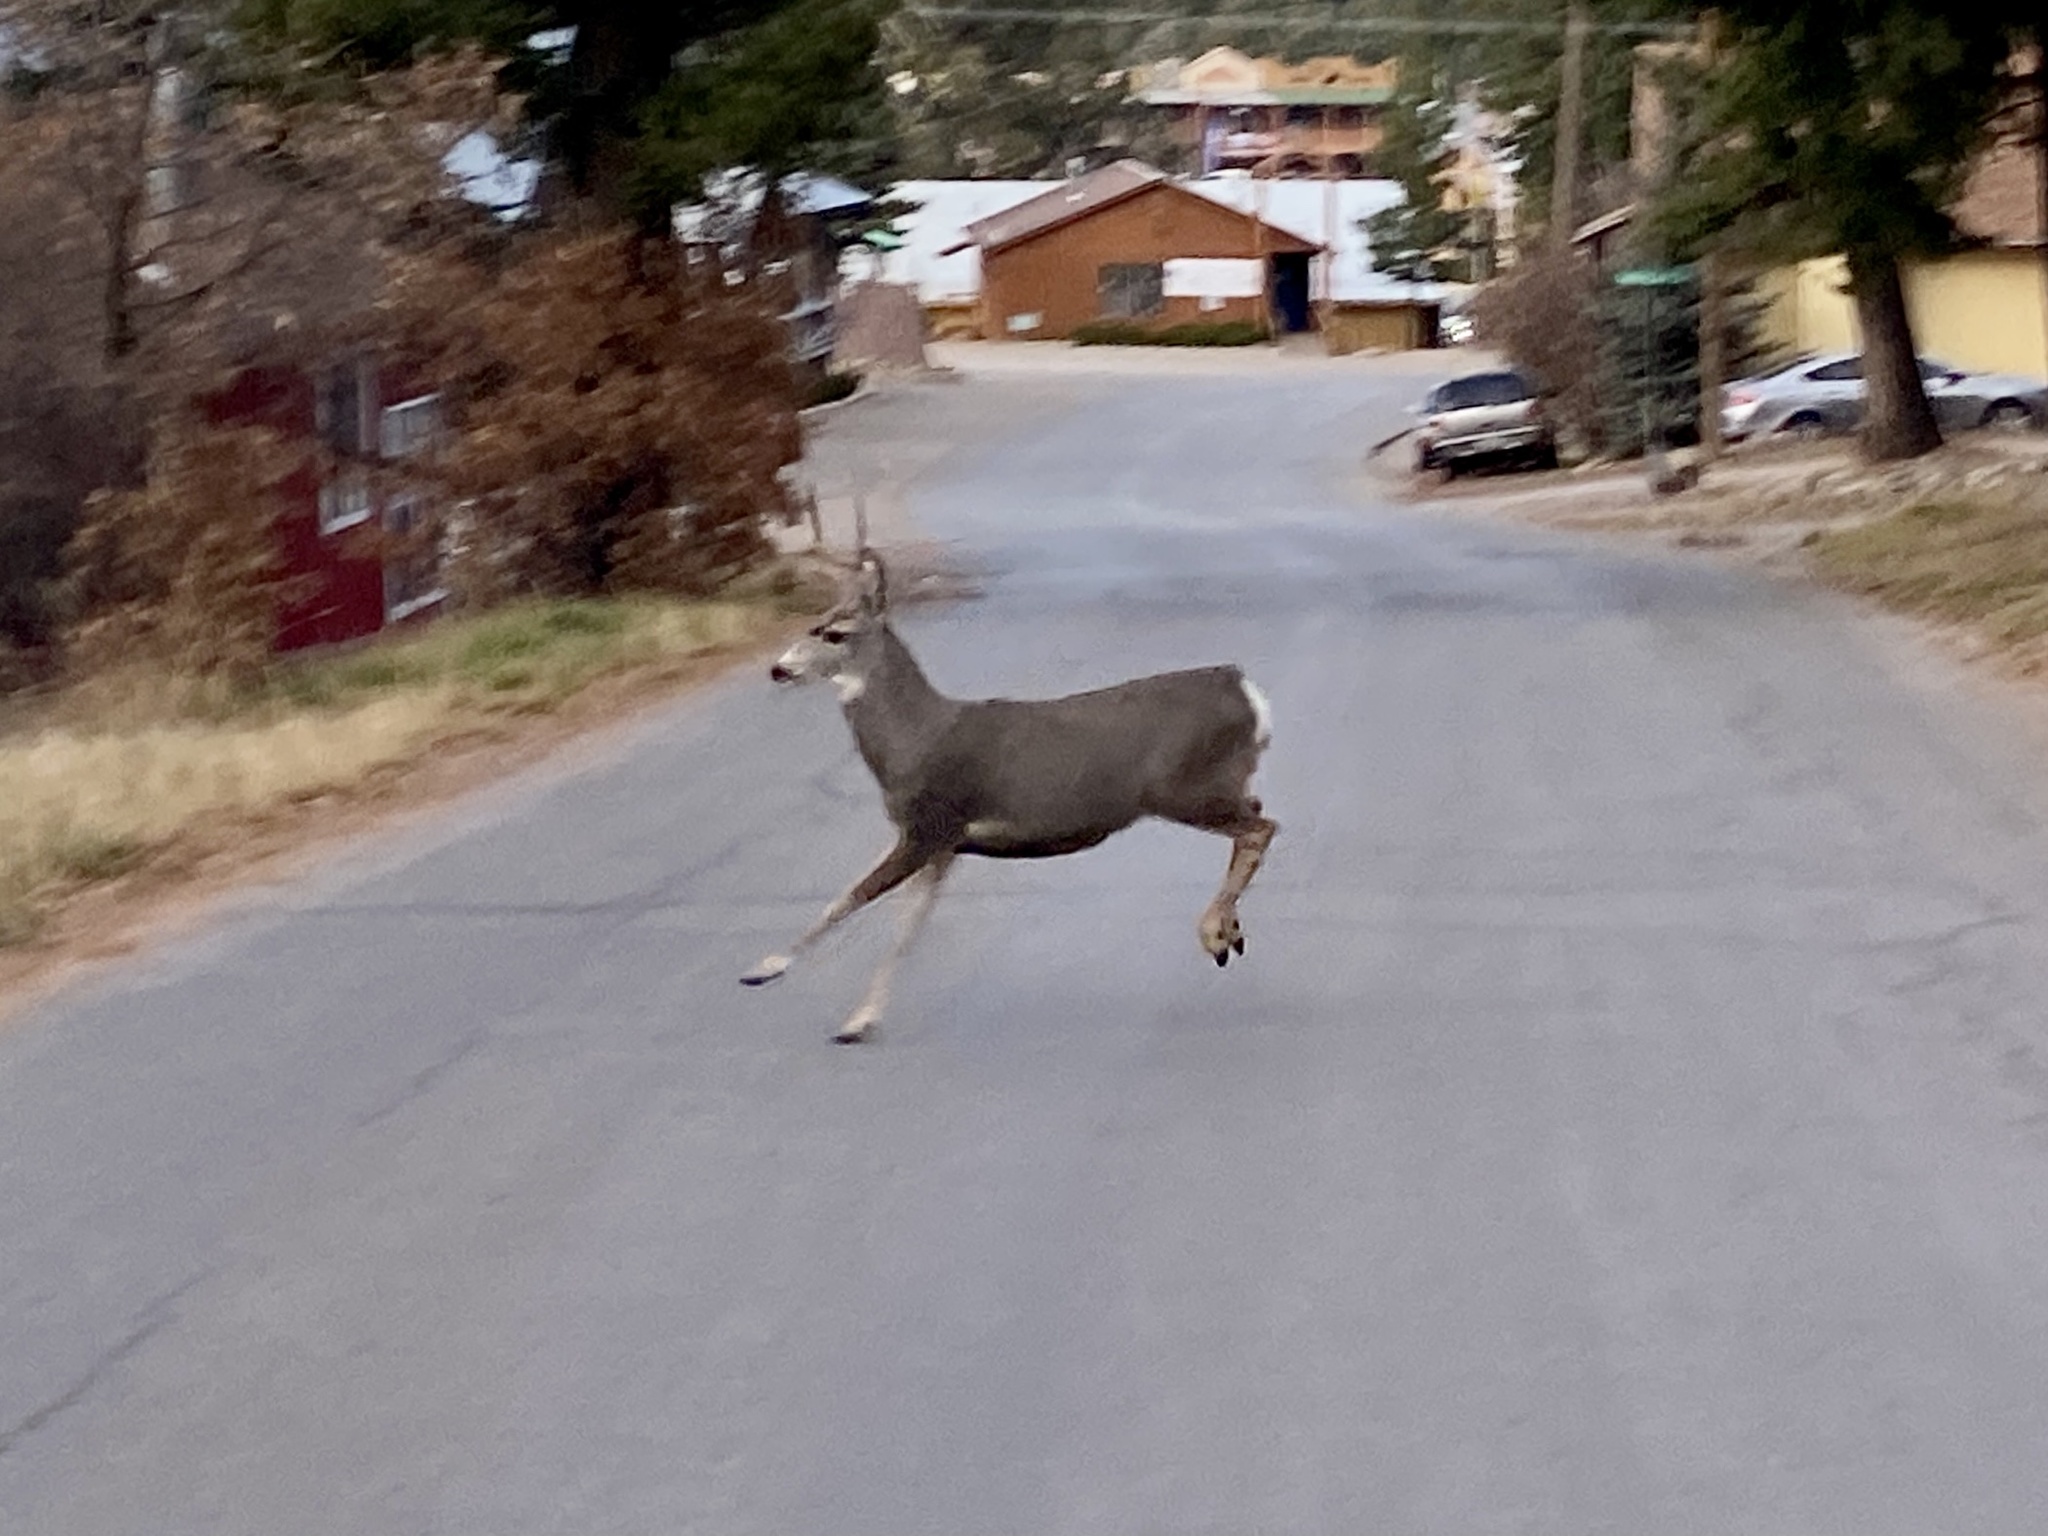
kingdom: Animalia
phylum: Chordata
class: Mammalia
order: Artiodactyla
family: Cervidae
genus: Odocoileus
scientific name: Odocoileus hemionus
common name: Mule deer
